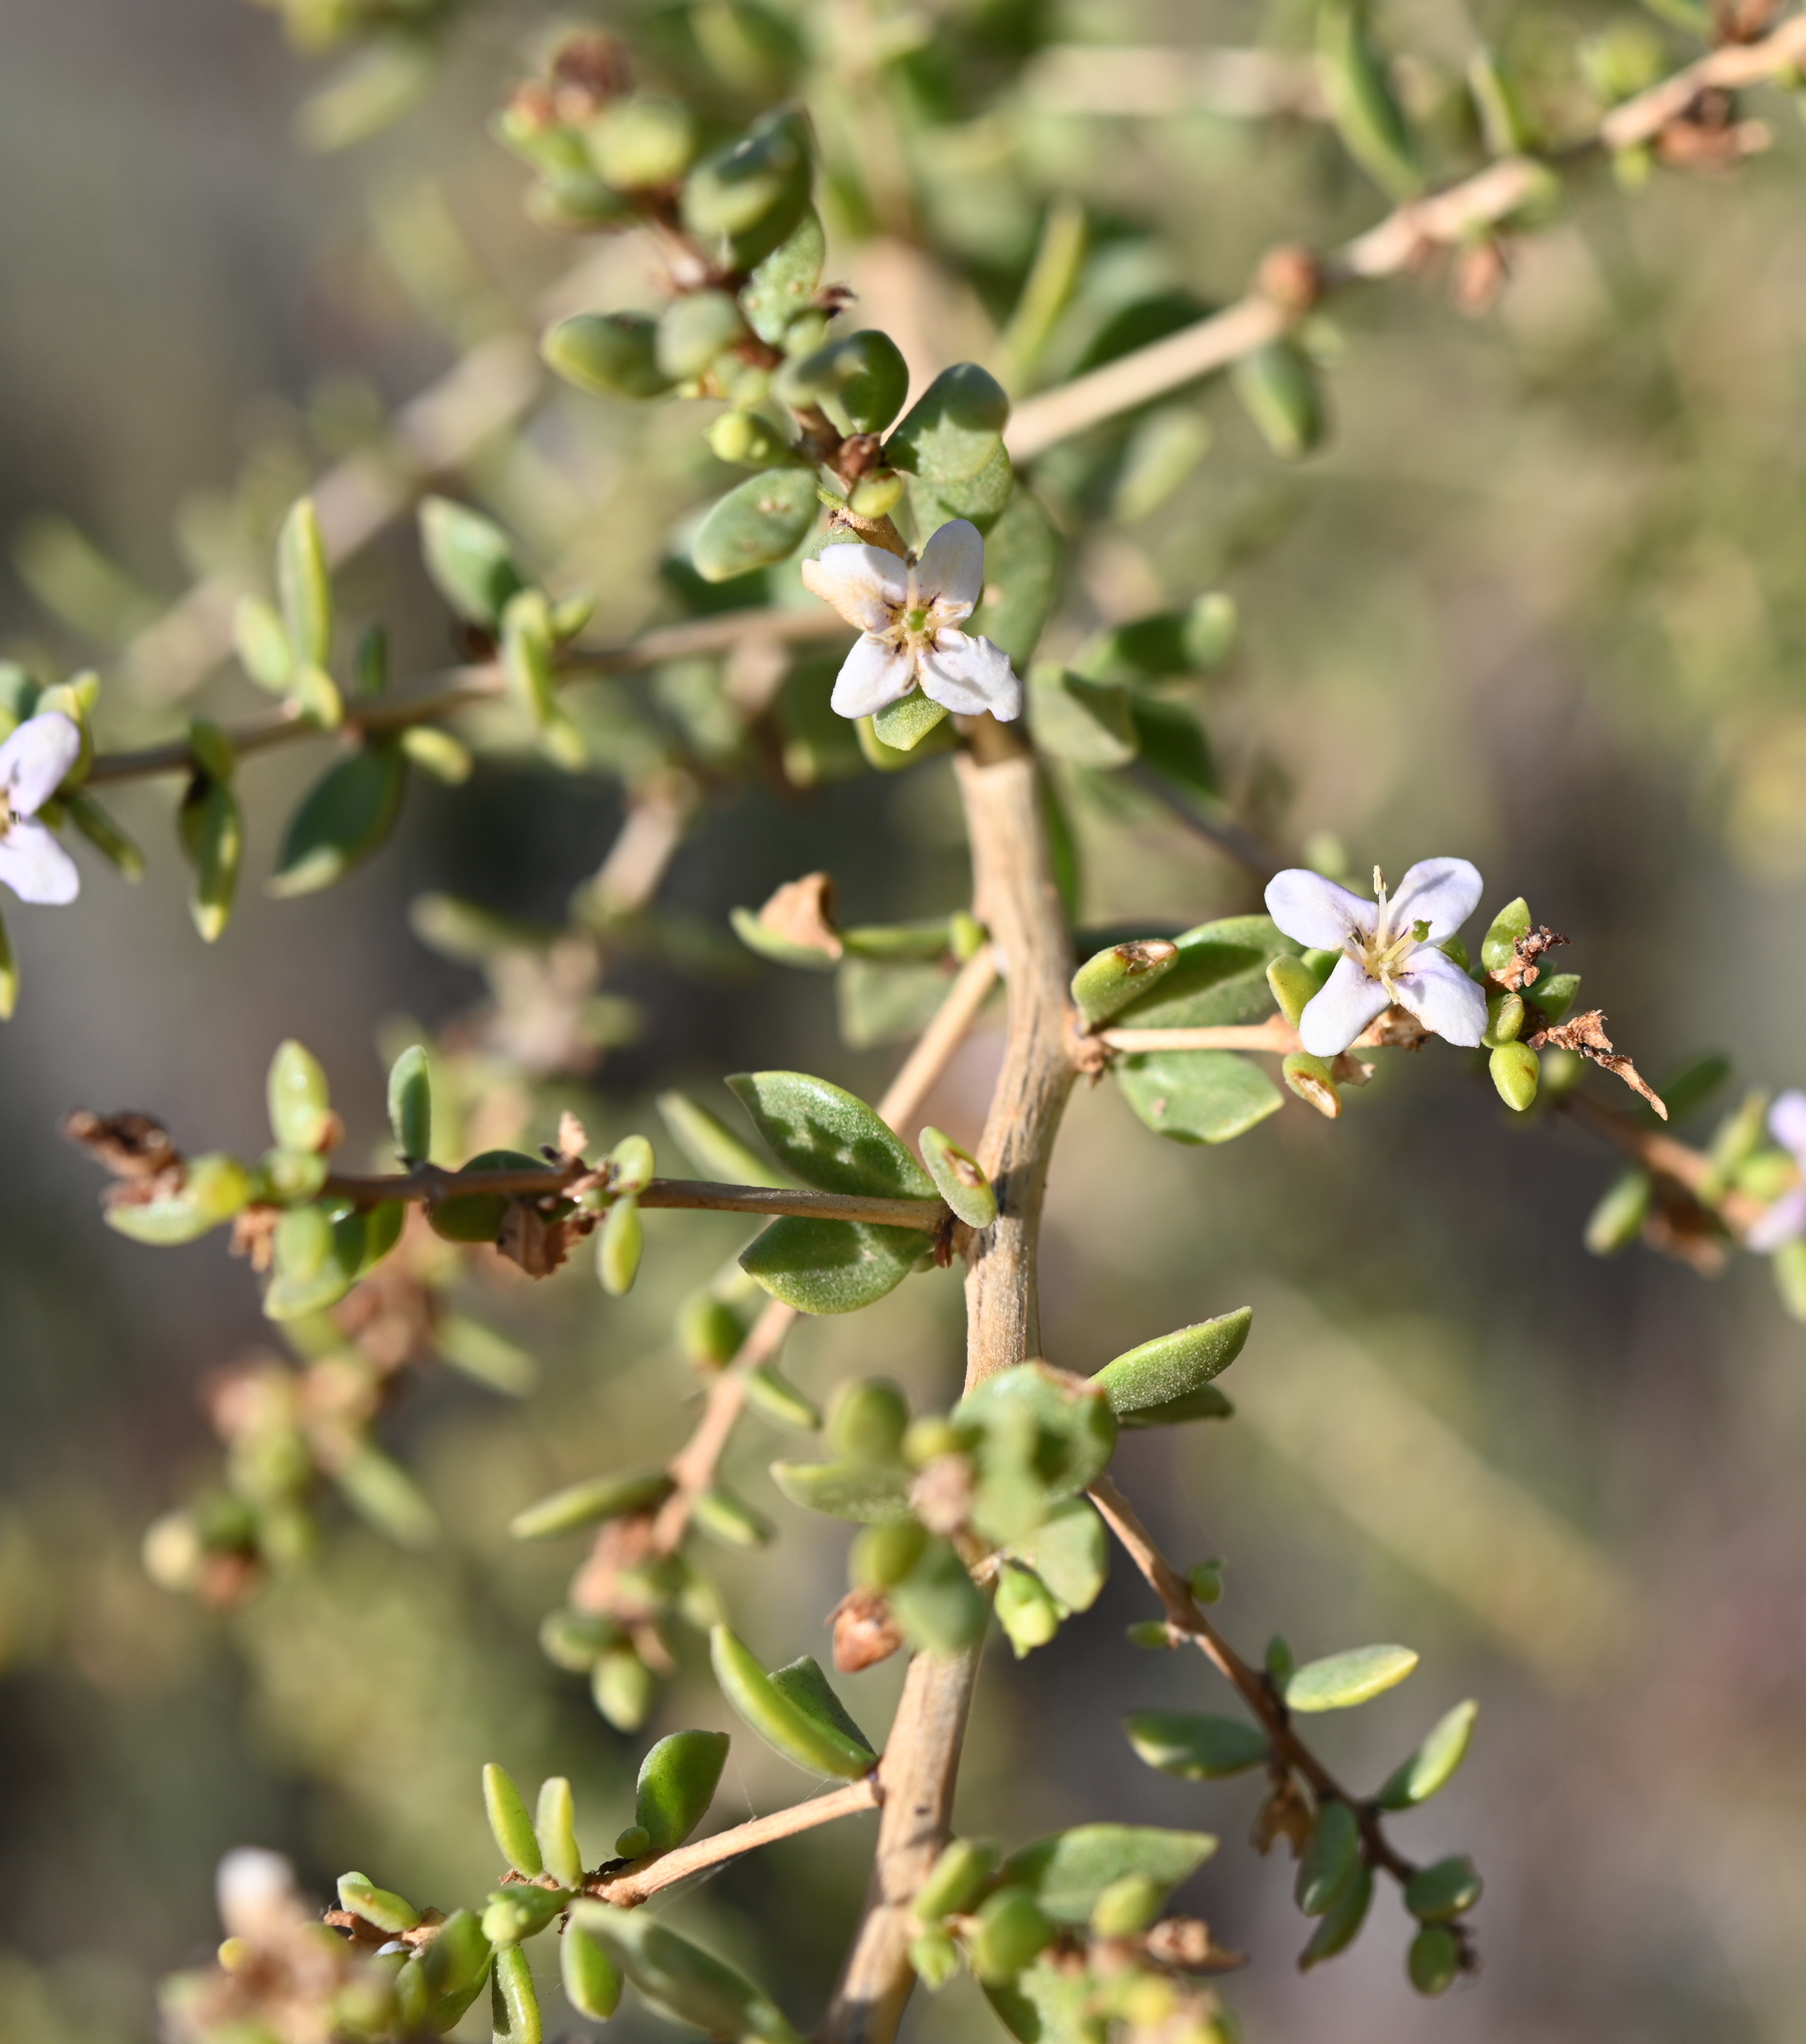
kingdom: Plantae
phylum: Tracheophyta
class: Magnoliopsida
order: Solanales
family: Solanaceae
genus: Lycium
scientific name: Lycium brevipes
